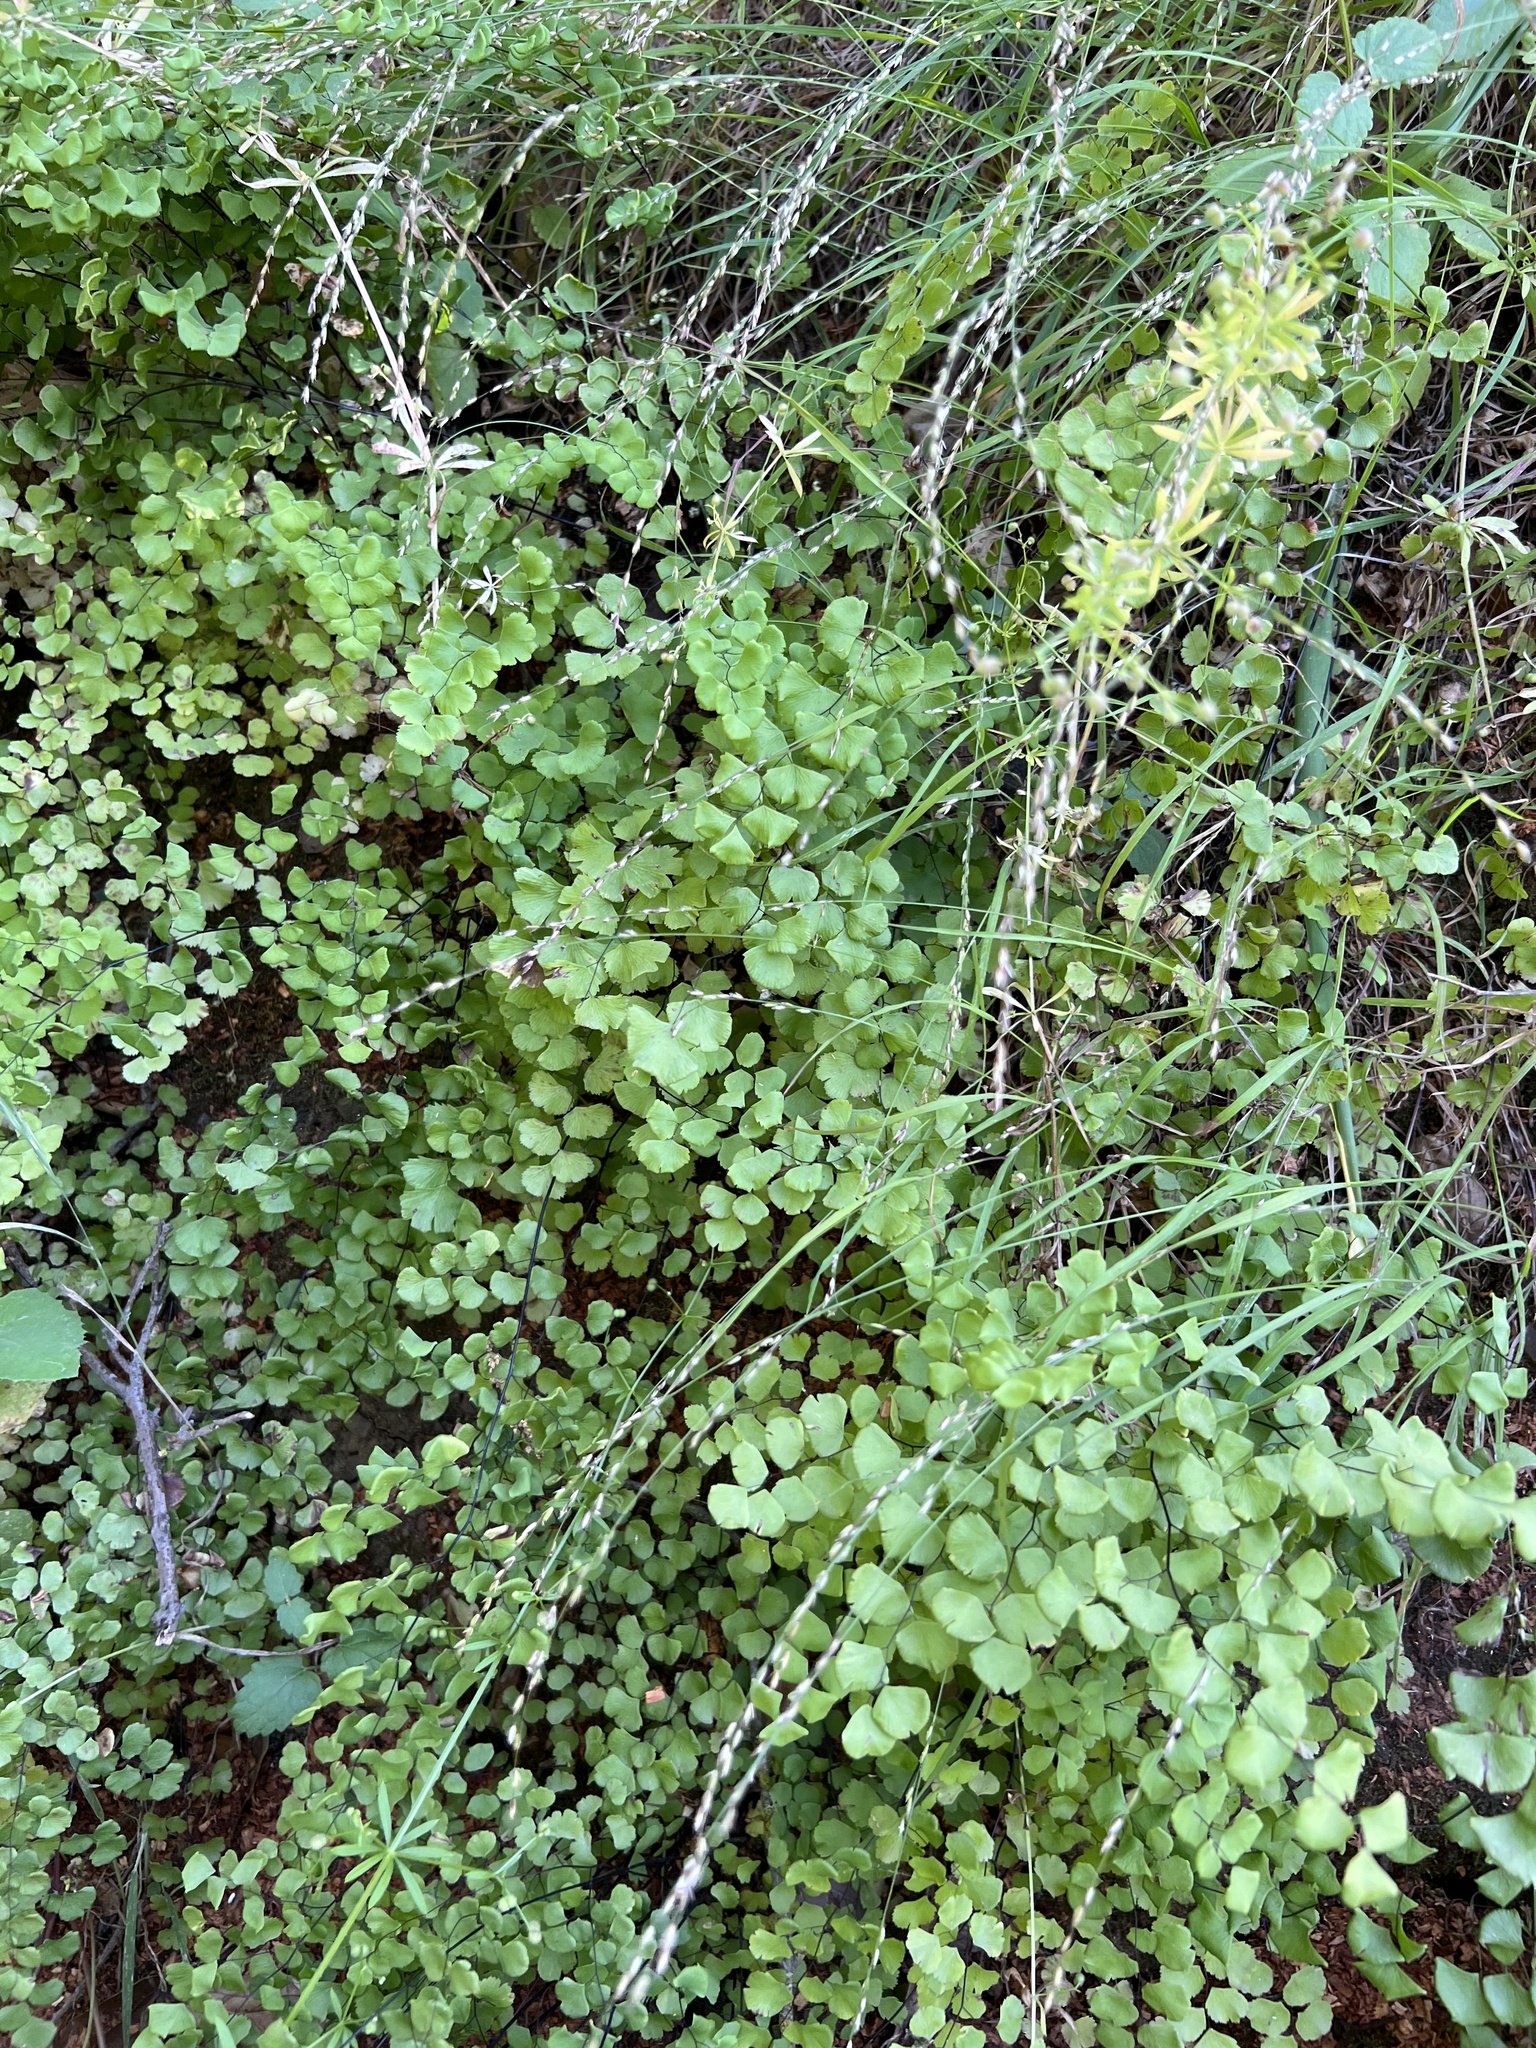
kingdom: Plantae
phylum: Tracheophyta
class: Polypodiopsida
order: Polypodiales
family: Pteridaceae
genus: Adiantum
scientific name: Adiantum jordanii
